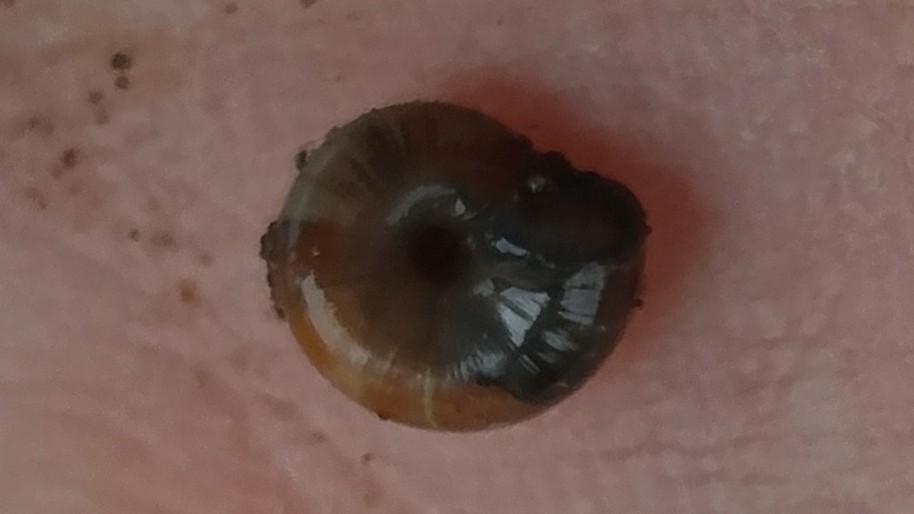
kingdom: Animalia
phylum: Mollusca
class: Gastropoda
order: Stylommatophora
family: Oxychilidae
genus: Oxychilus
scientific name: Oxychilus alliarius
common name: Garlic glass-snail
